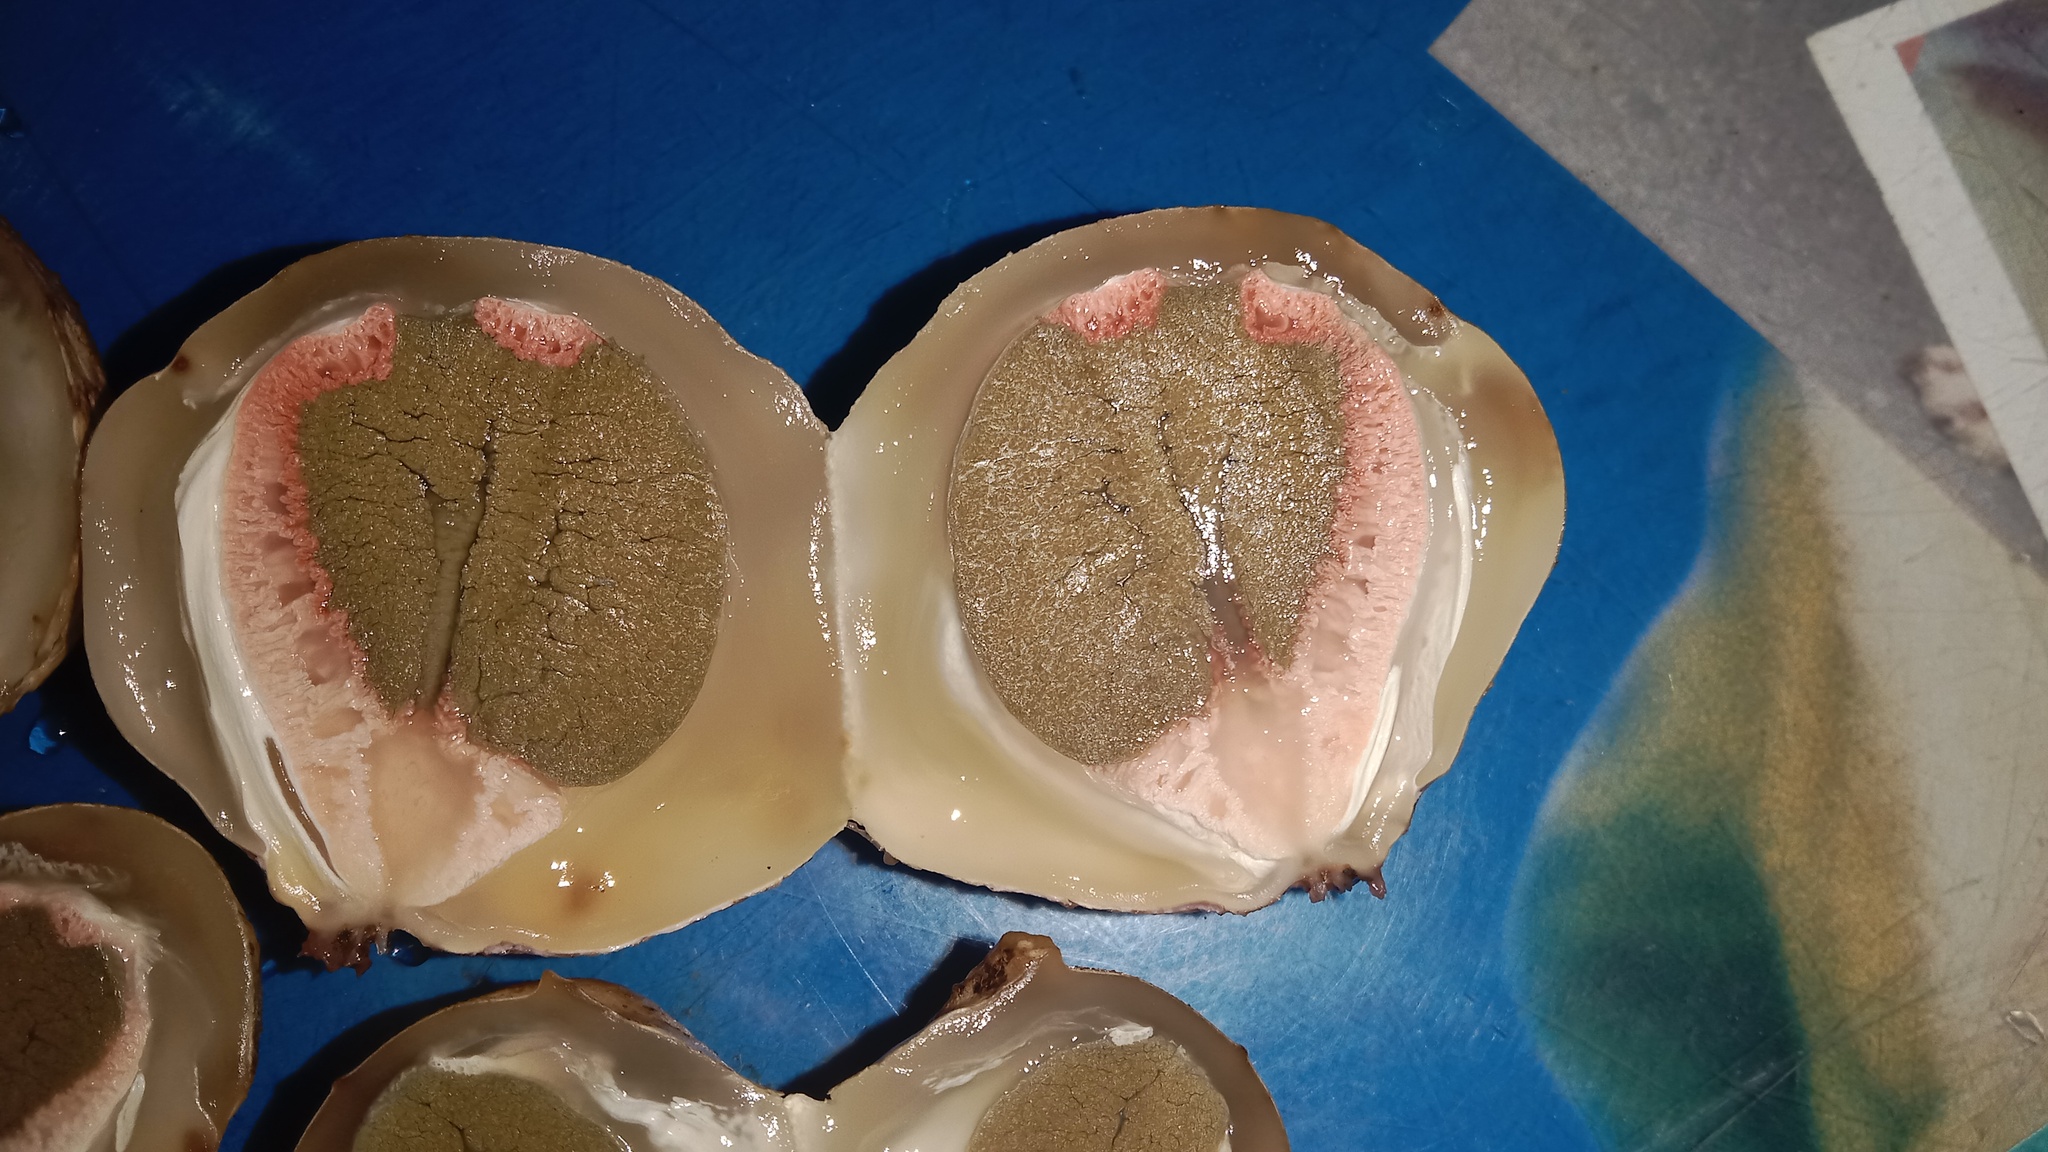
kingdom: Fungi
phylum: Basidiomycota
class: Agaricomycetes
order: Phallales
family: Phallaceae
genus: Clathrus
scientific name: Clathrus archeri
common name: Devil's fingers
